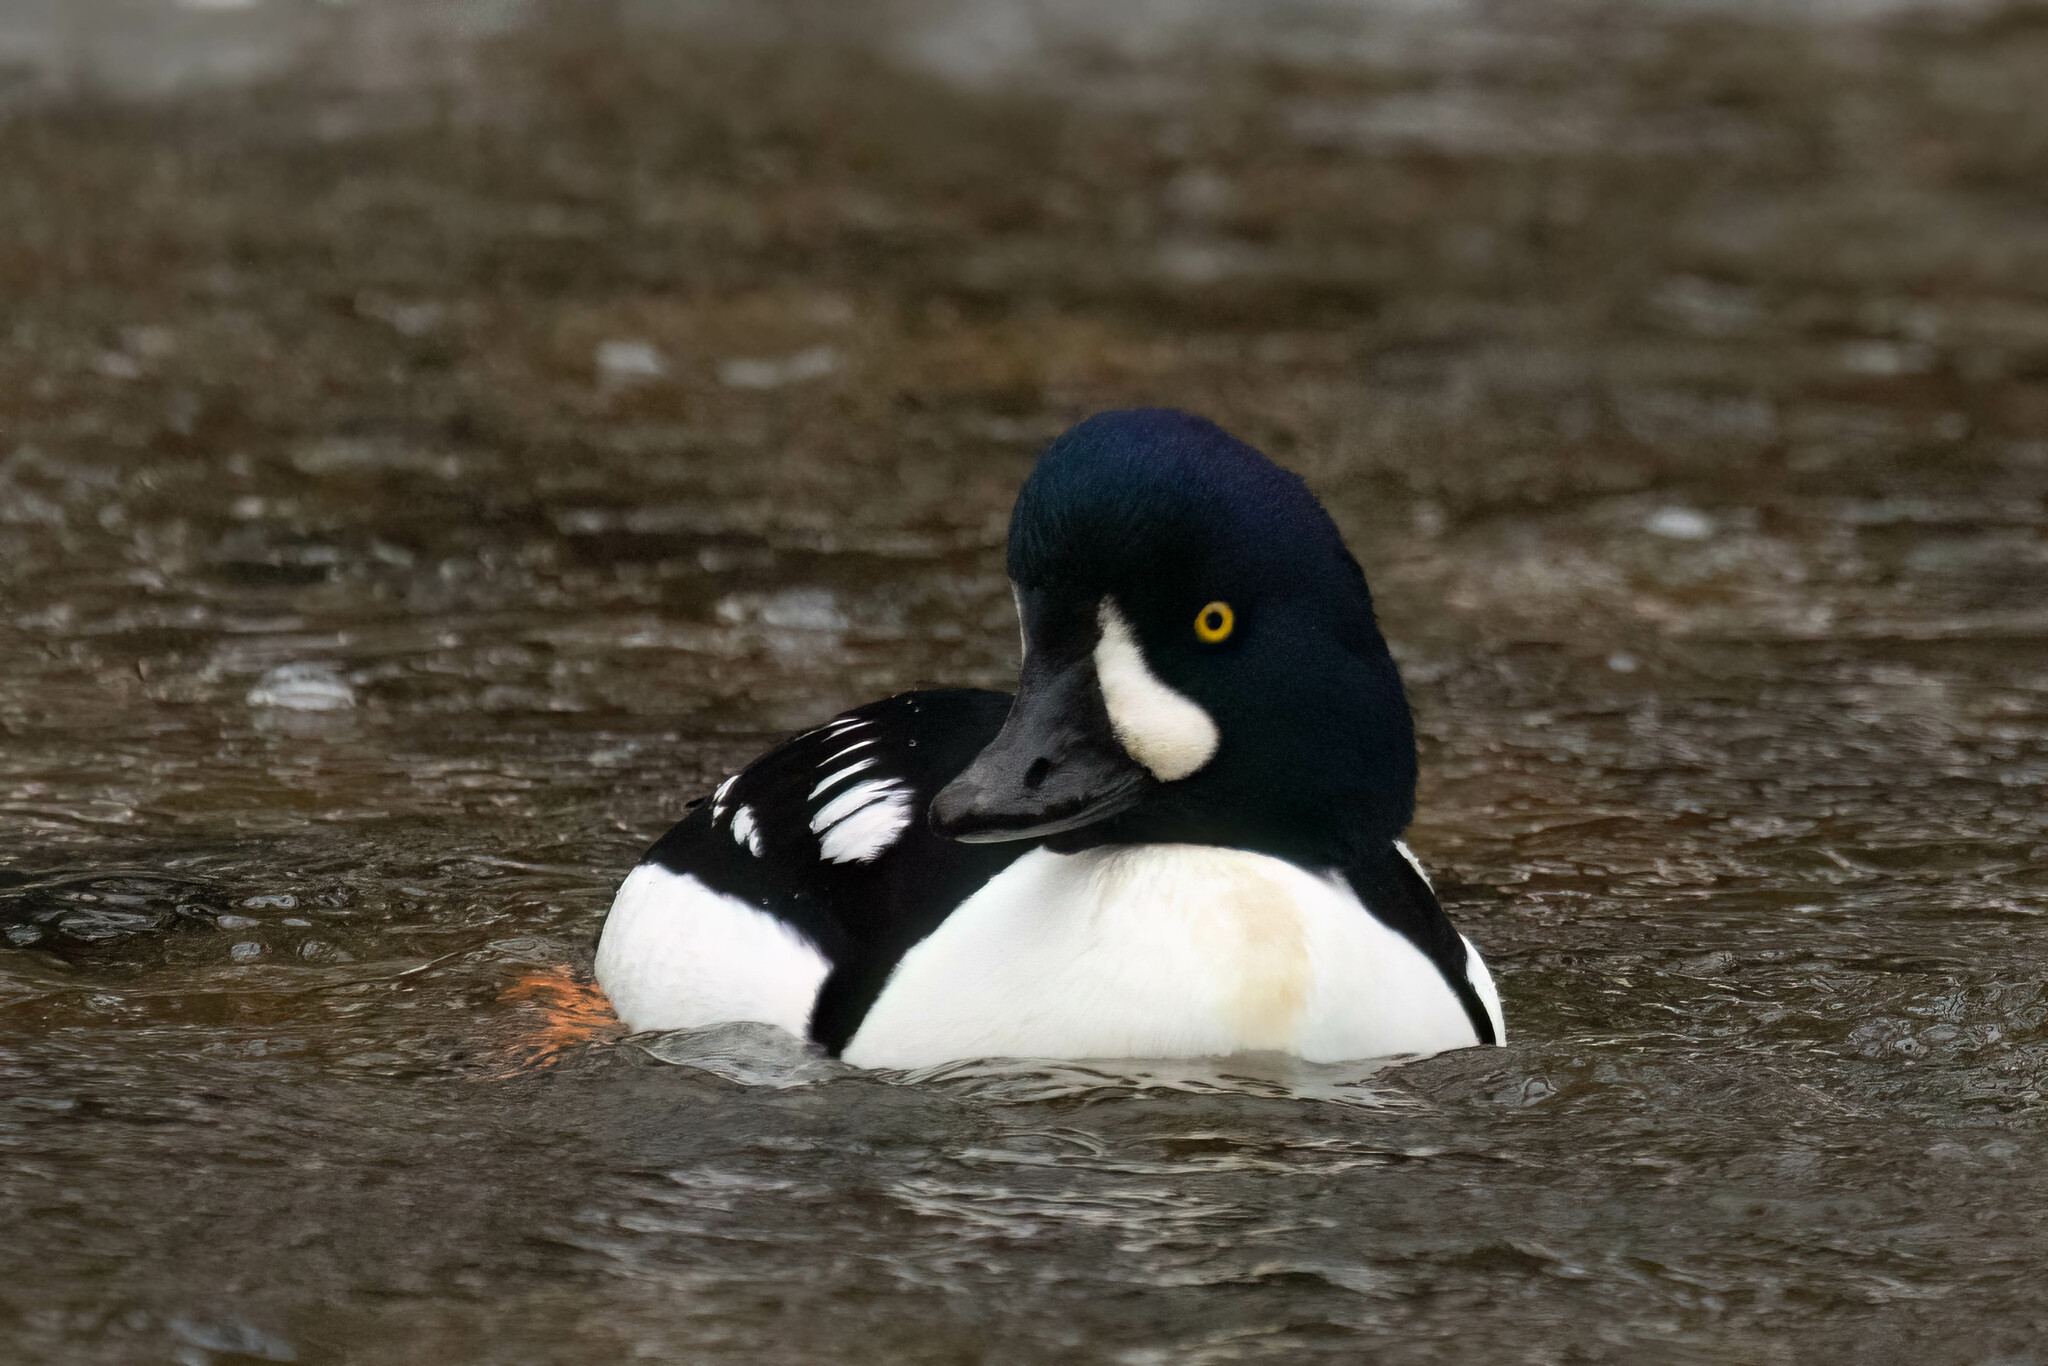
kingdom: Animalia
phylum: Chordata
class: Aves
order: Anseriformes
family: Anatidae
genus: Bucephala
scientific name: Bucephala islandica
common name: Barrow's goldeneye
